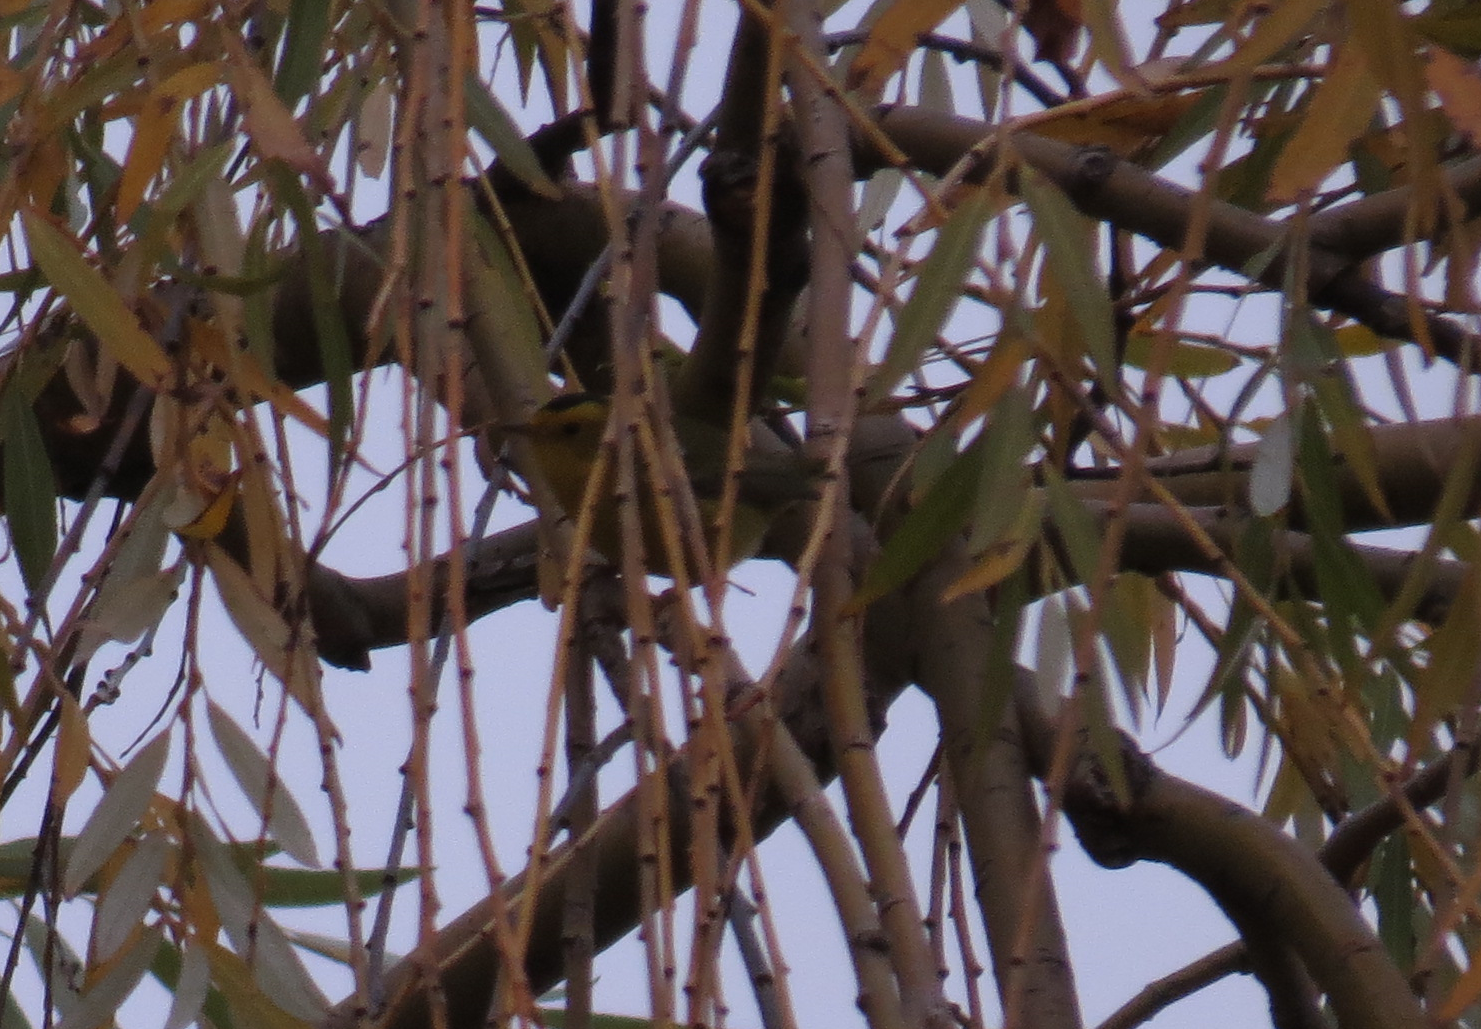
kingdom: Animalia
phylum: Chordata
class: Aves
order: Passeriformes
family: Parulidae
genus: Cardellina
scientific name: Cardellina pusilla
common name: Wilson's warbler
